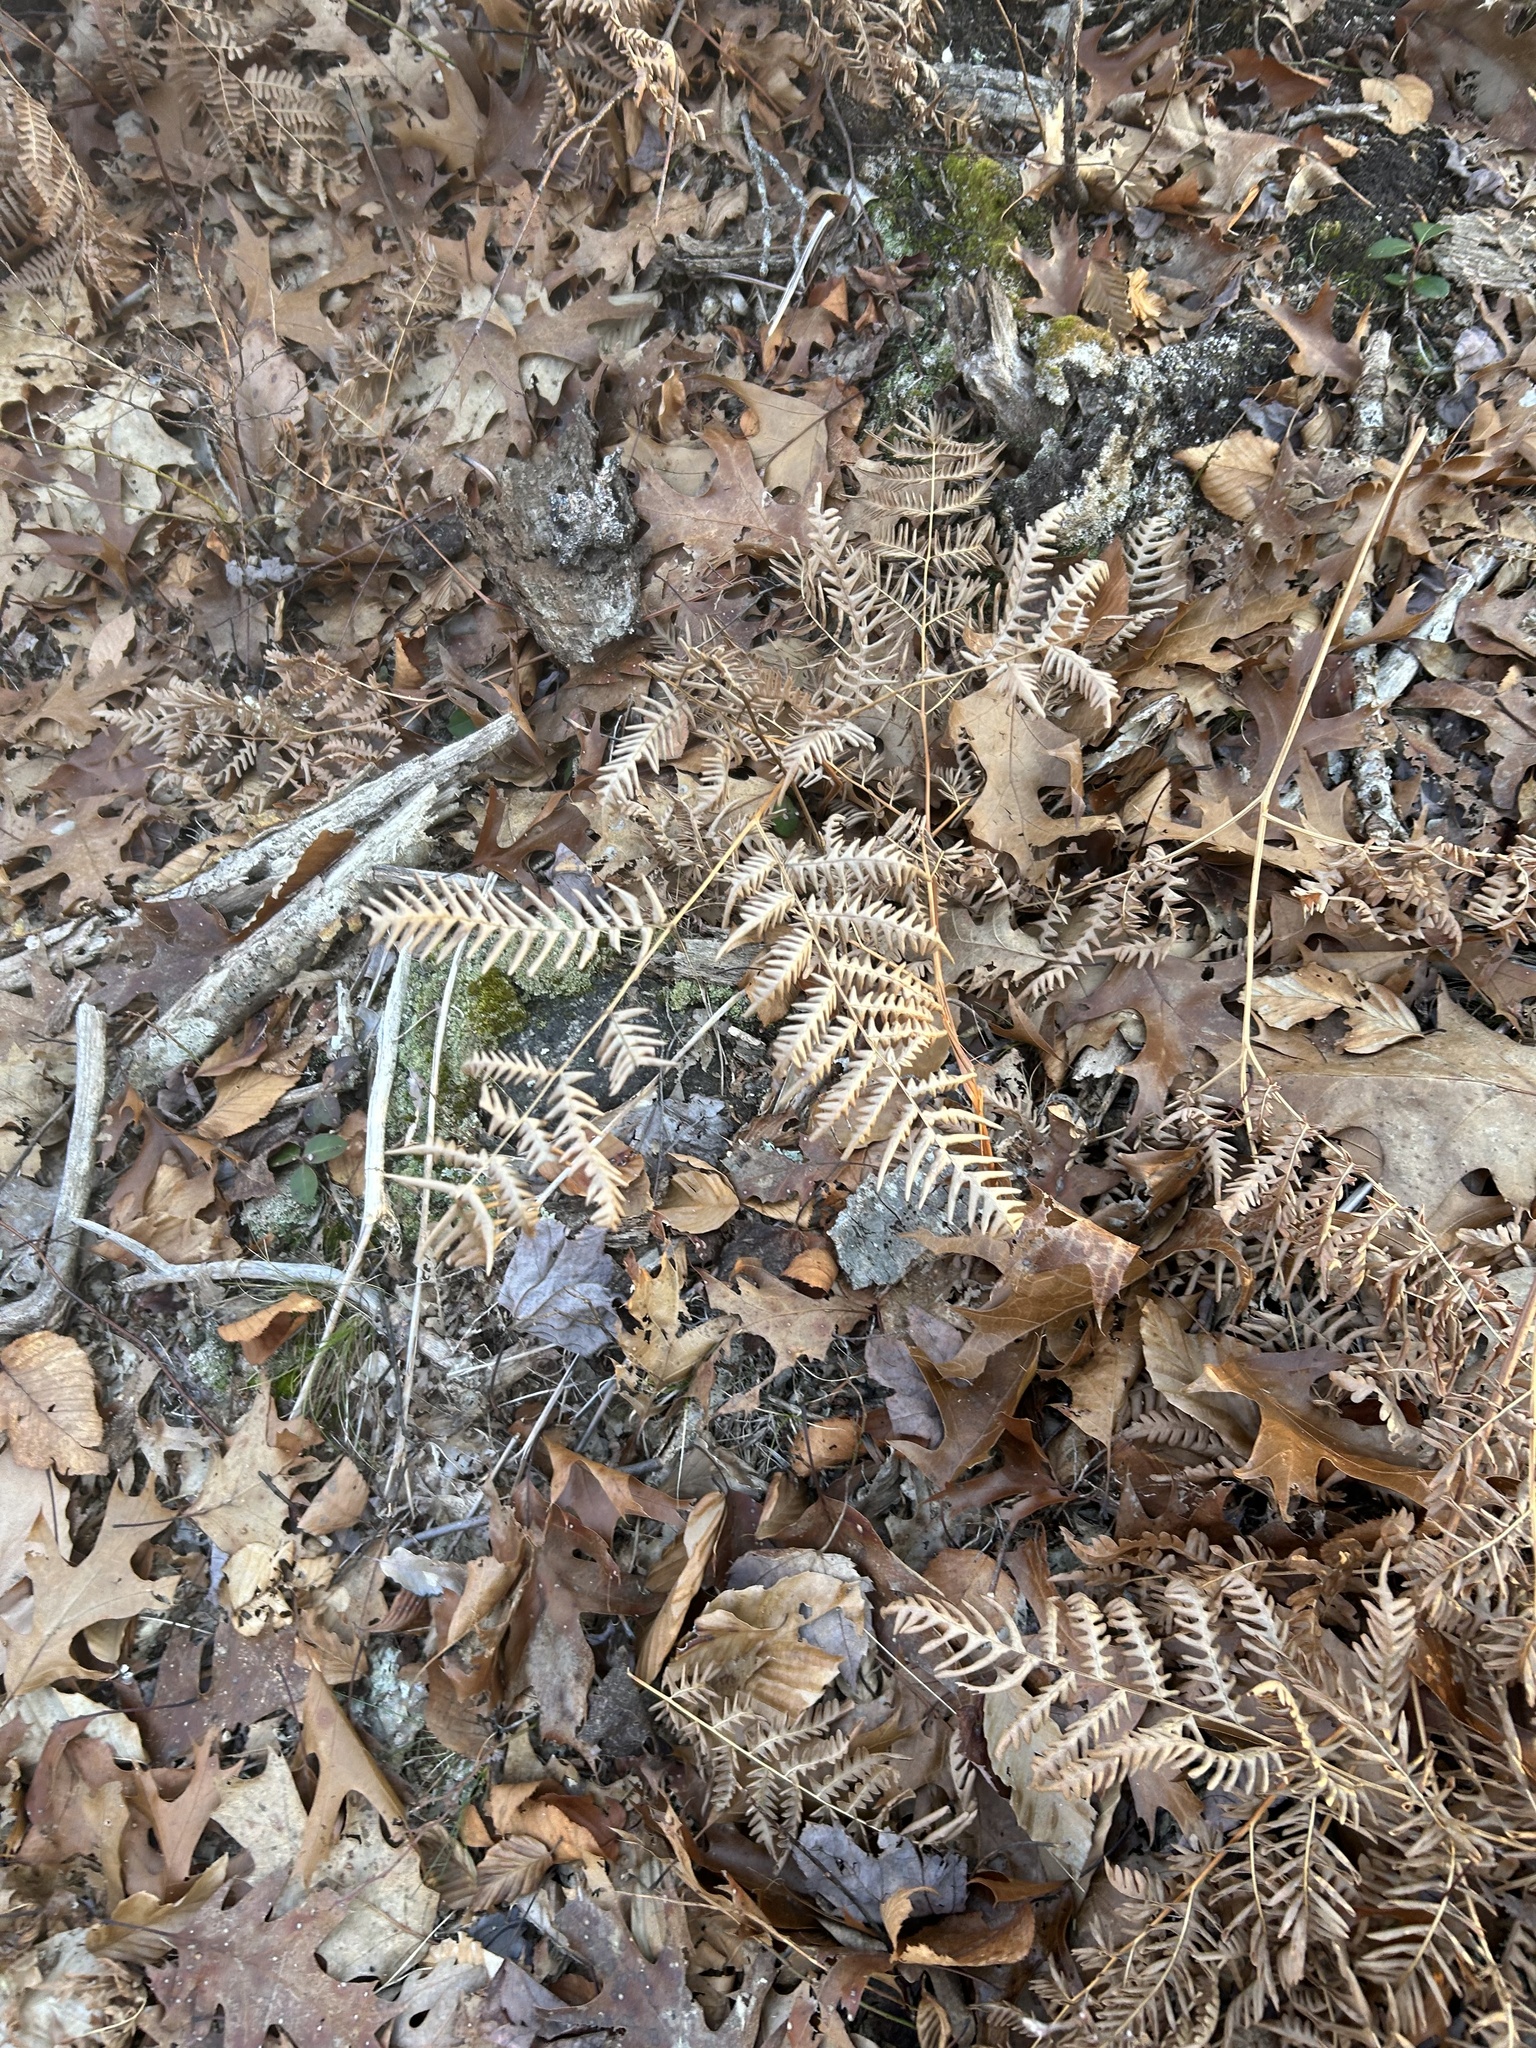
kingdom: Plantae
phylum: Tracheophyta
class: Polypodiopsida
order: Polypodiales
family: Dennstaedtiaceae
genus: Pteridium
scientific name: Pteridium aquilinum
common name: Bracken
